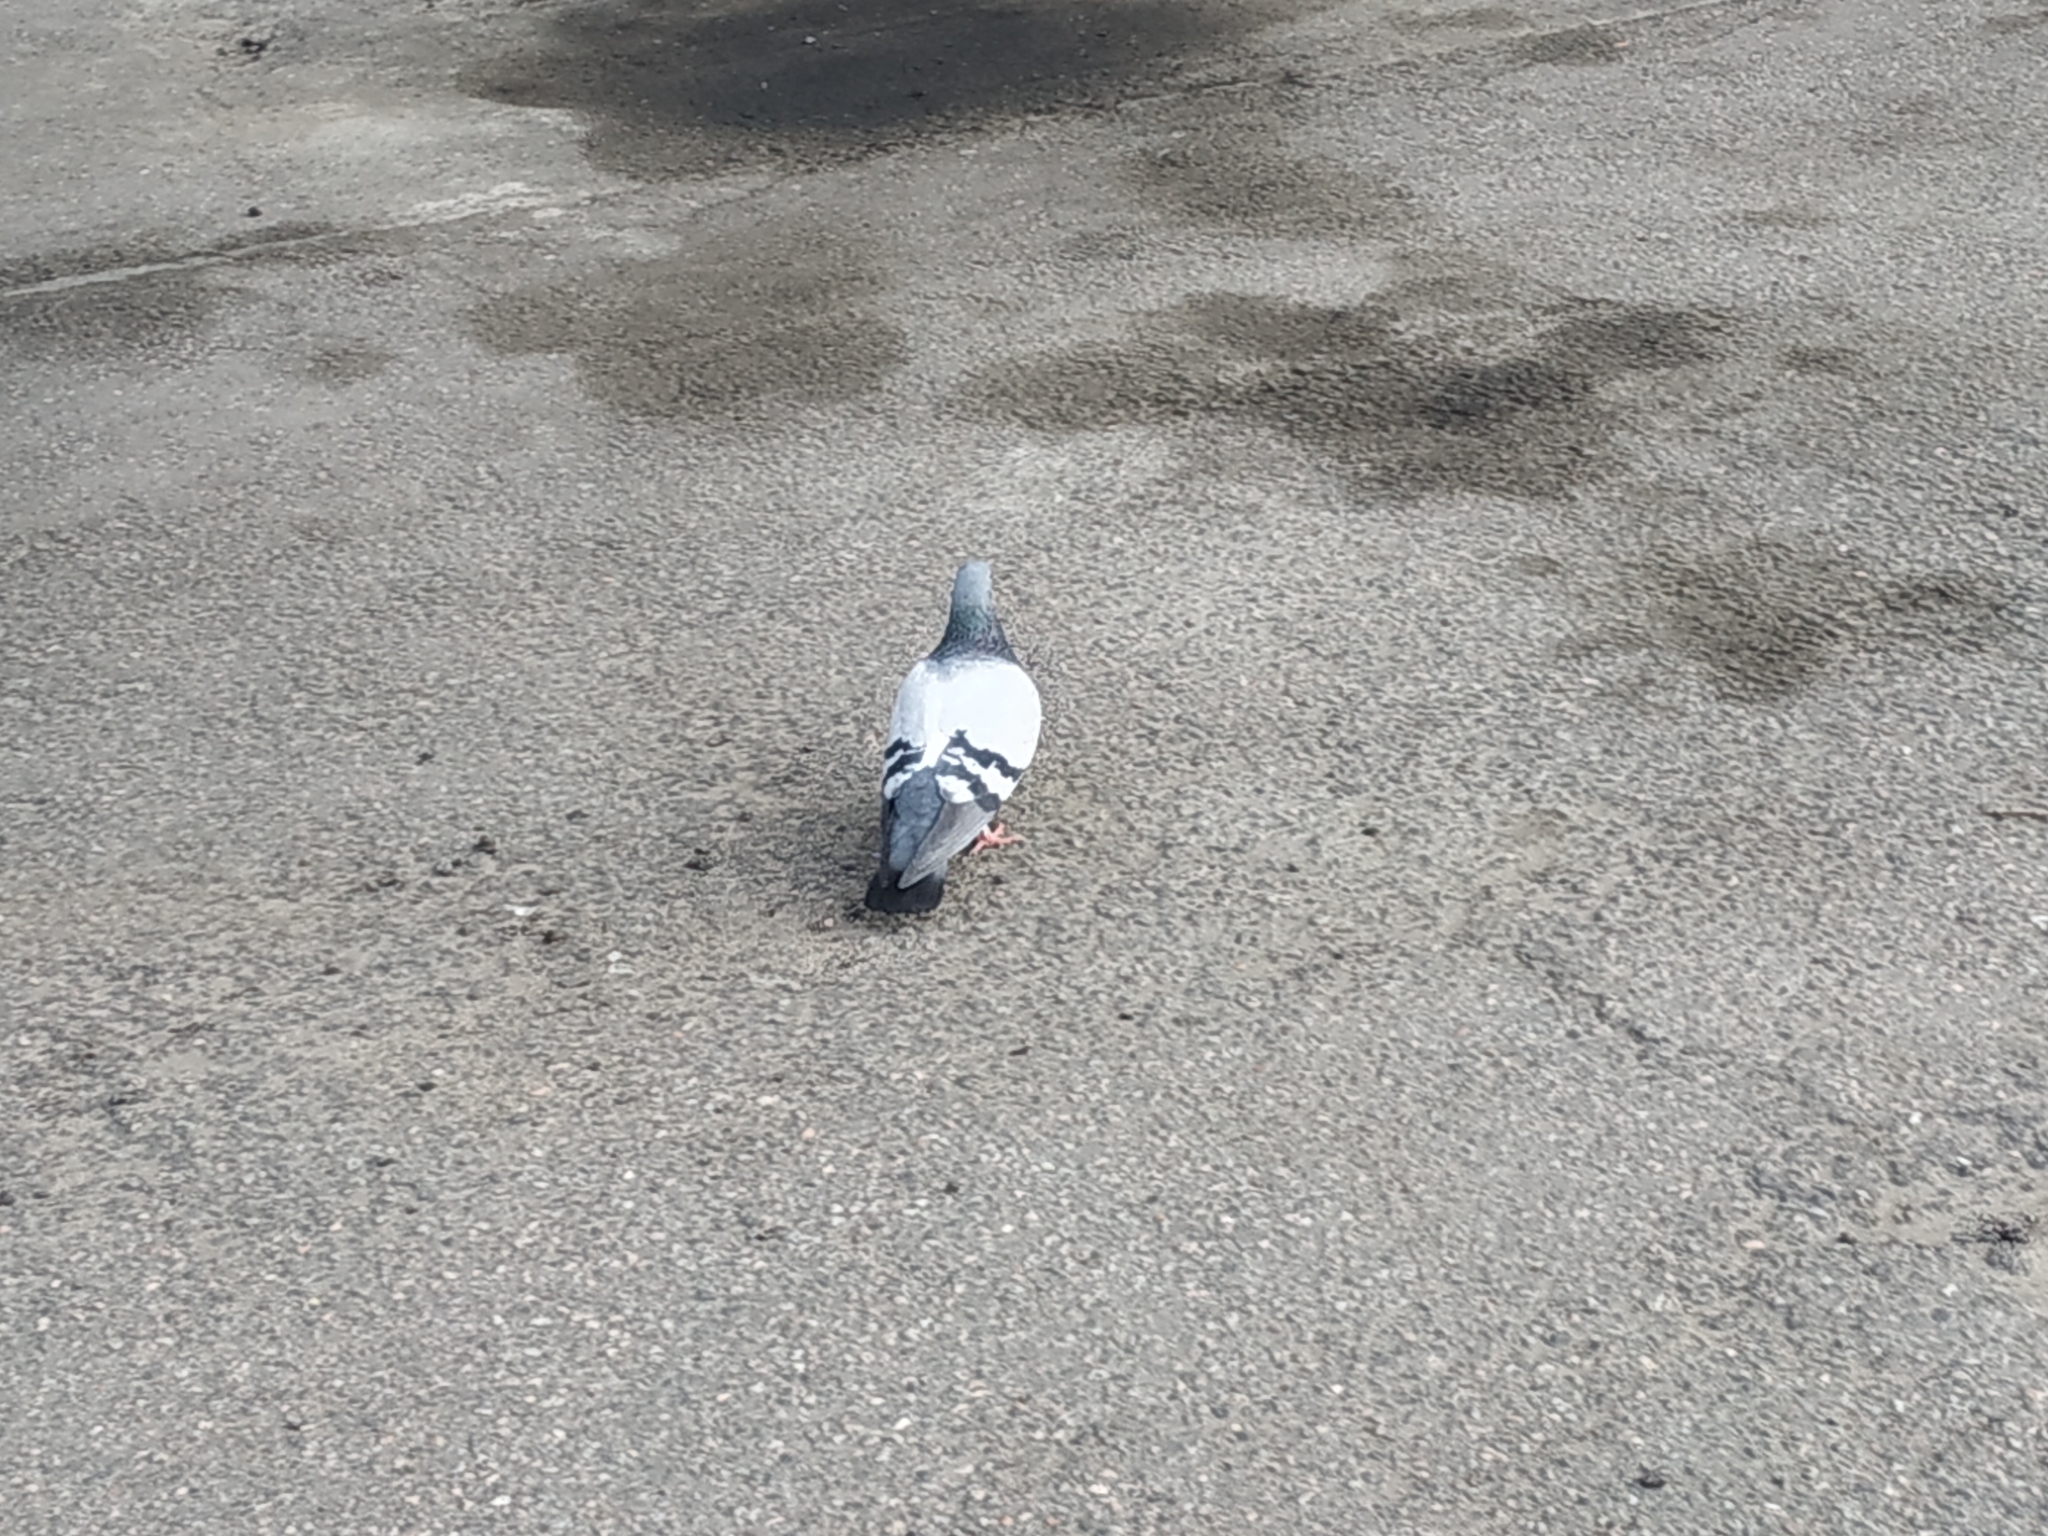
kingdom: Animalia
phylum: Chordata
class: Aves
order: Columbiformes
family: Columbidae
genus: Columba
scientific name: Columba livia
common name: Rock pigeon
